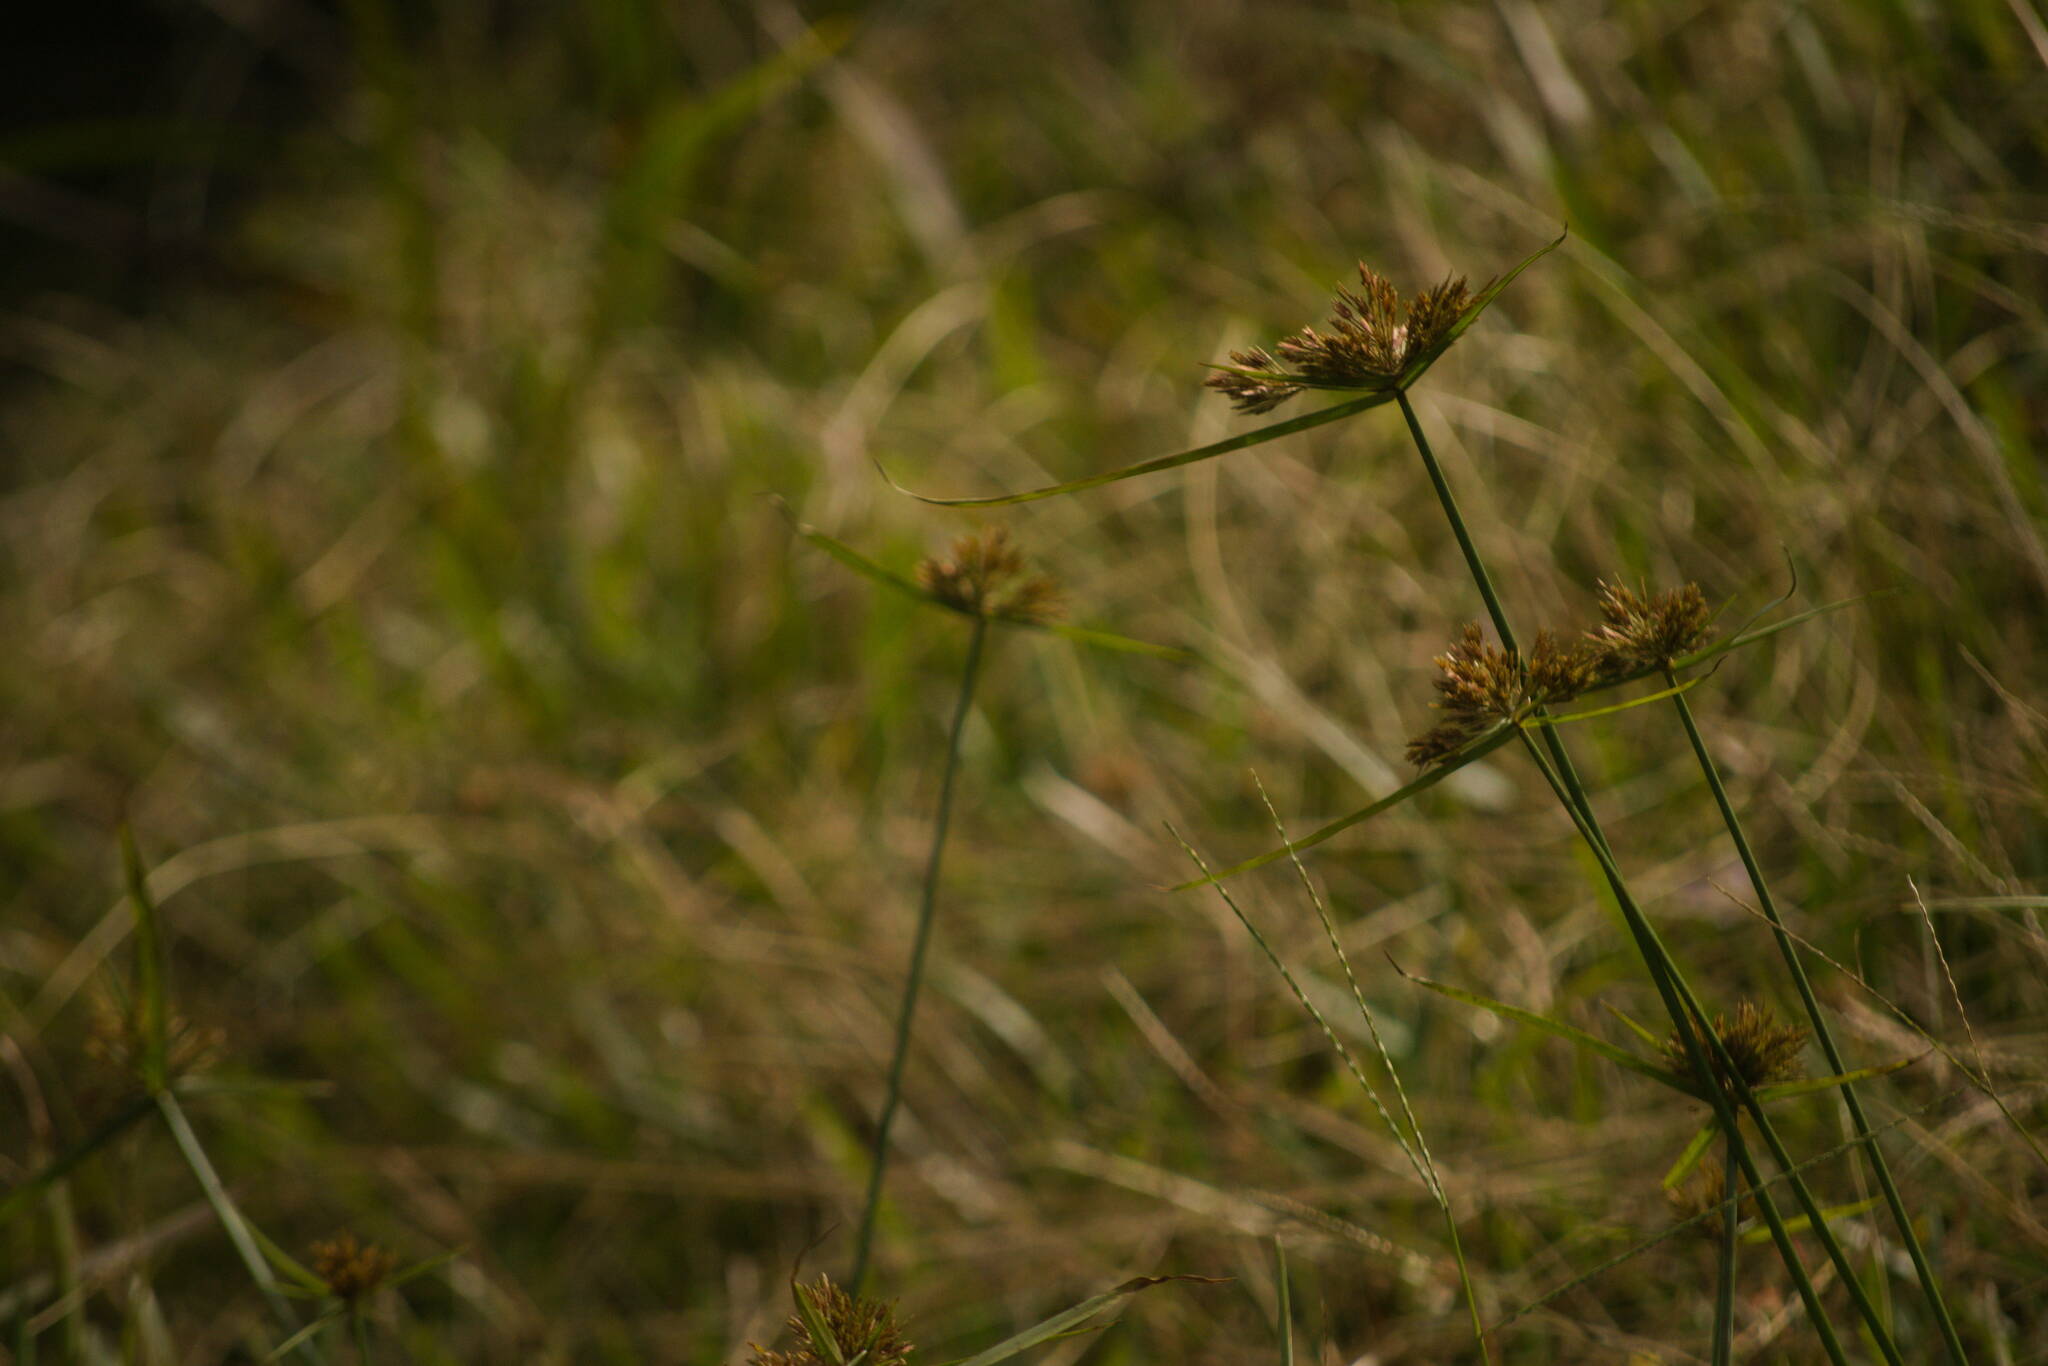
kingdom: Plantae
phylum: Tracheophyta
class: Liliopsida
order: Poales
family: Cyperaceae
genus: Cyperus
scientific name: Cyperus polystachyos
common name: Bunchy flat sedge
